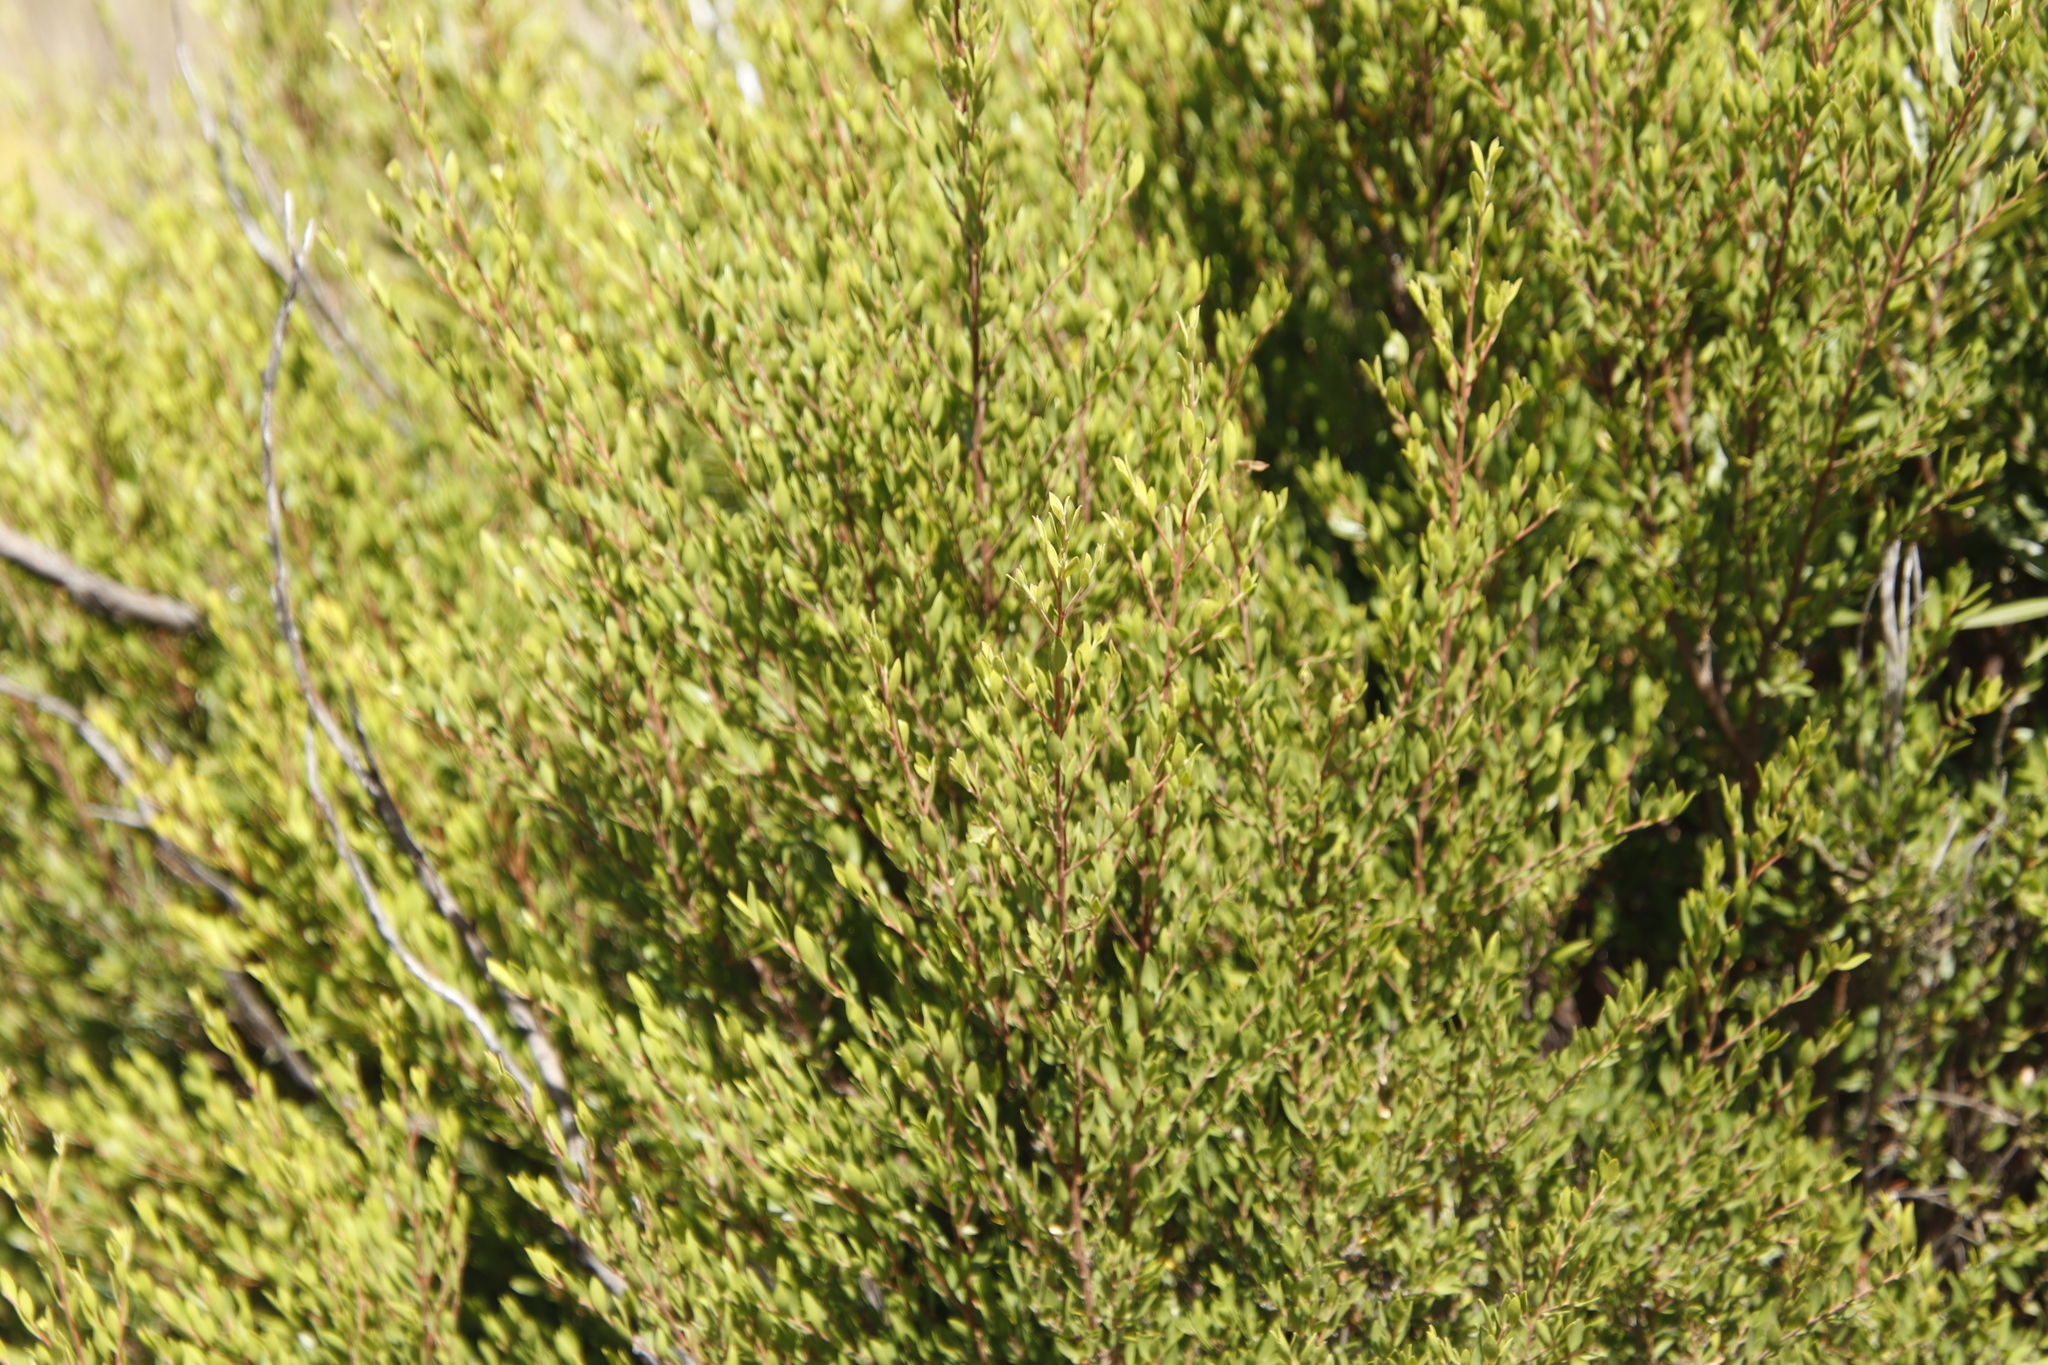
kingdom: Plantae
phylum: Tracheophyta
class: Magnoliopsida
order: Ericales
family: Ebenaceae
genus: Diospyros
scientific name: Diospyros glabra
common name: Fynbos star apple
